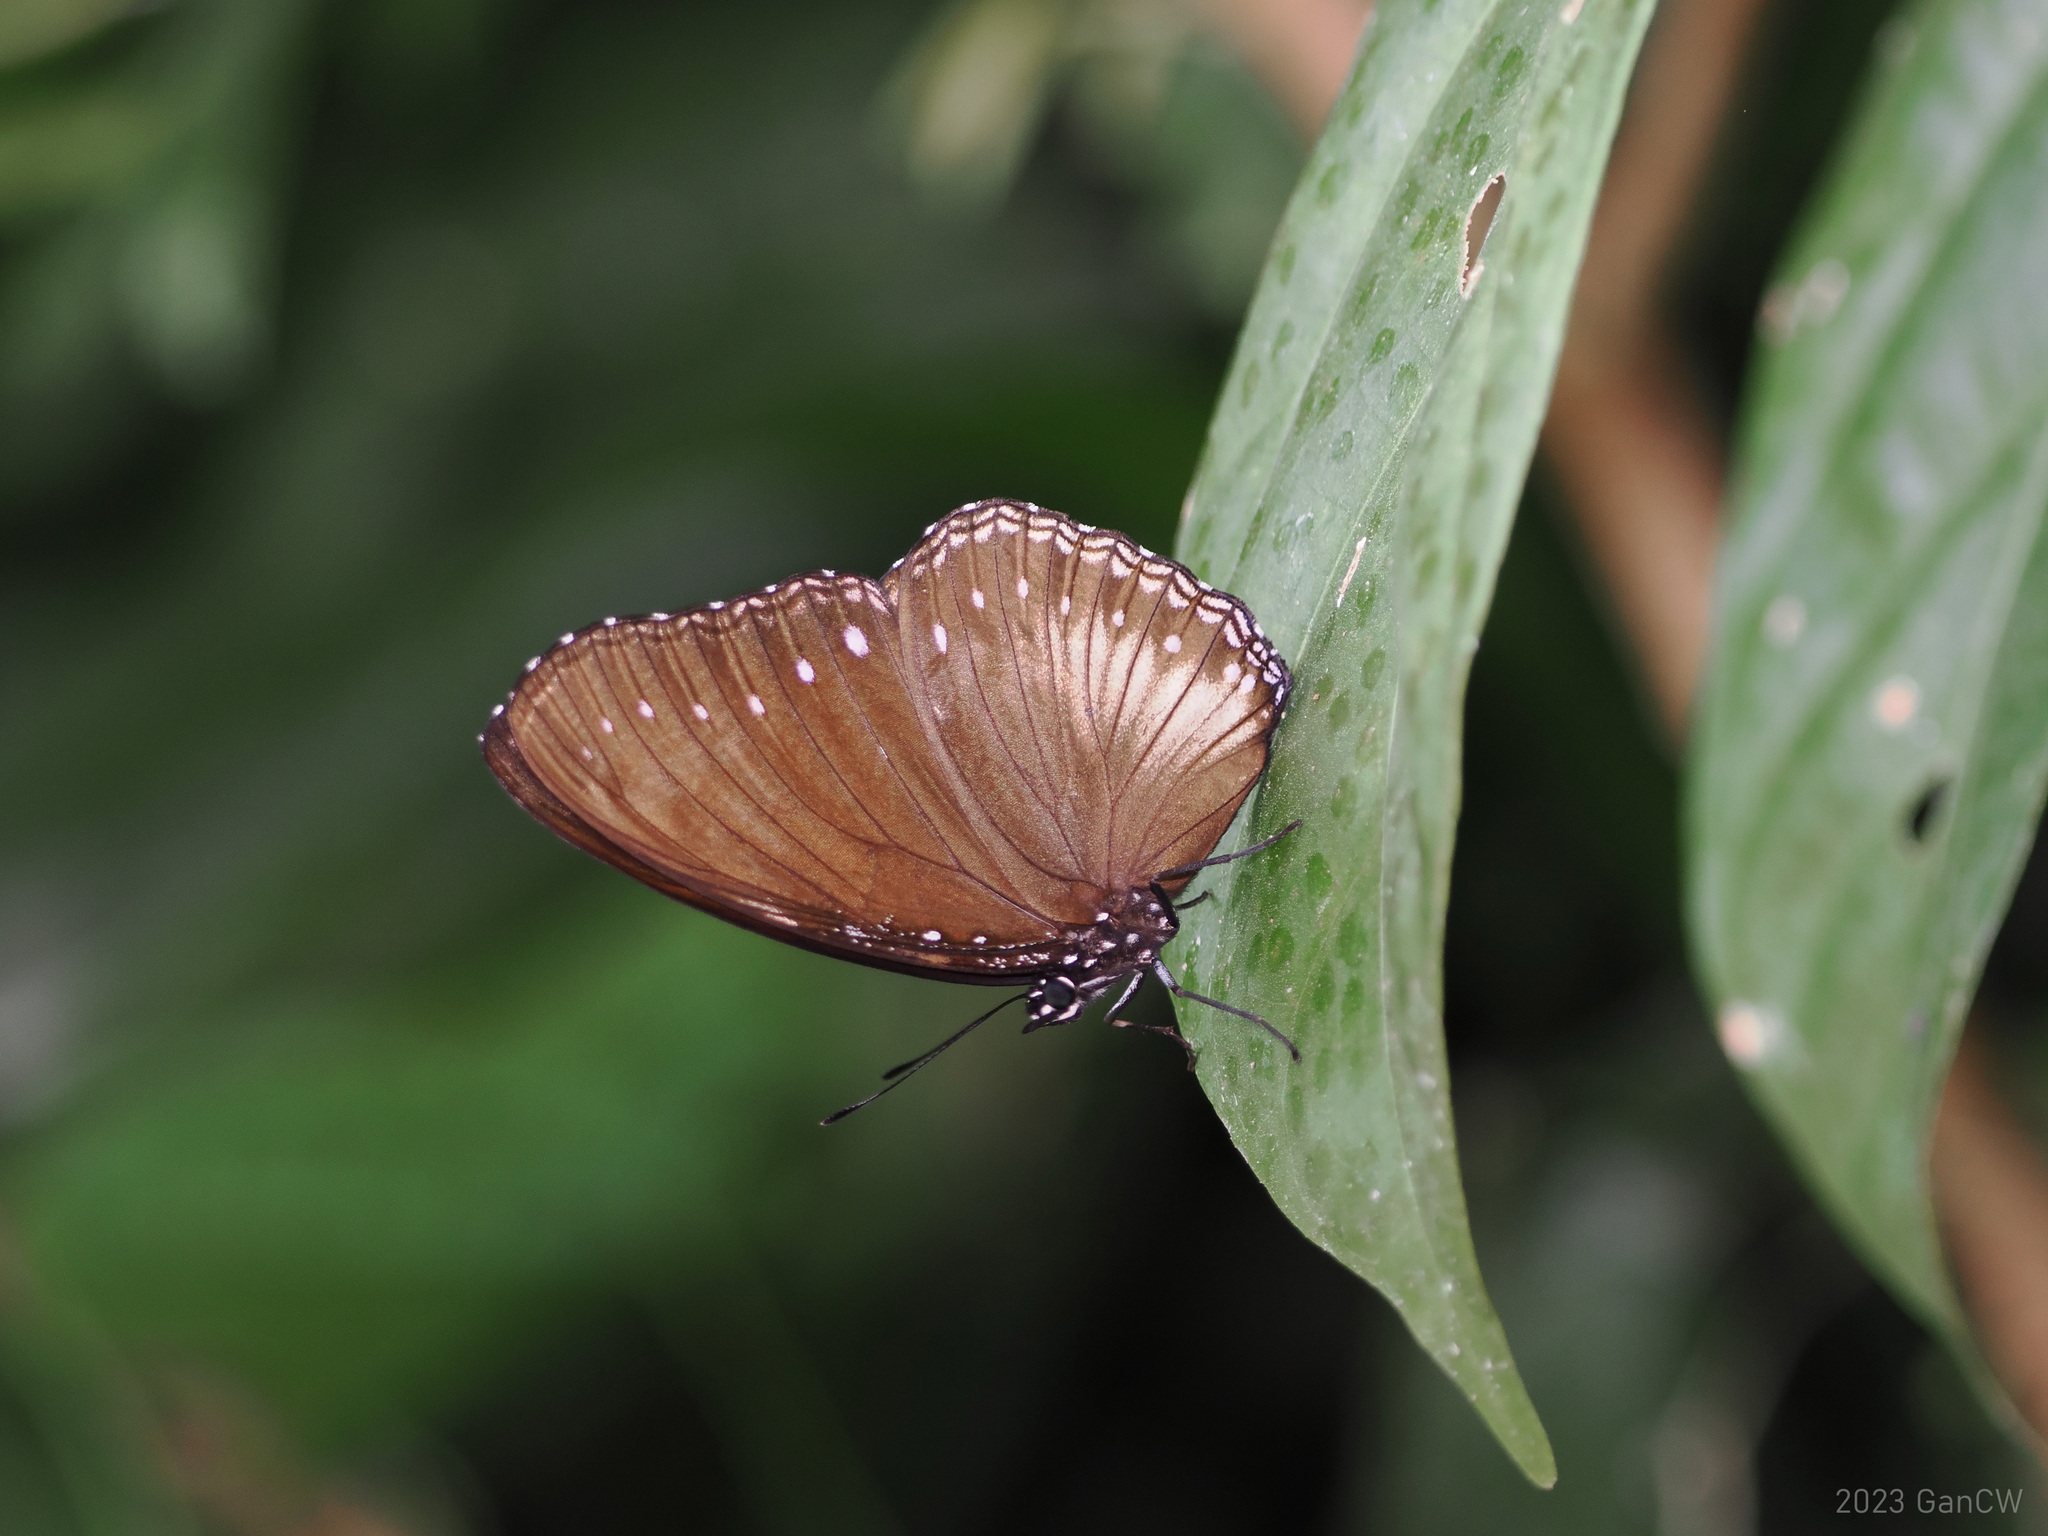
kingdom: Animalia
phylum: Arthropoda
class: Insecta
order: Lepidoptera
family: Nymphalidae
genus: Hypolimnas
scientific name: Hypolimnas anomala
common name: Malayan eggfly
